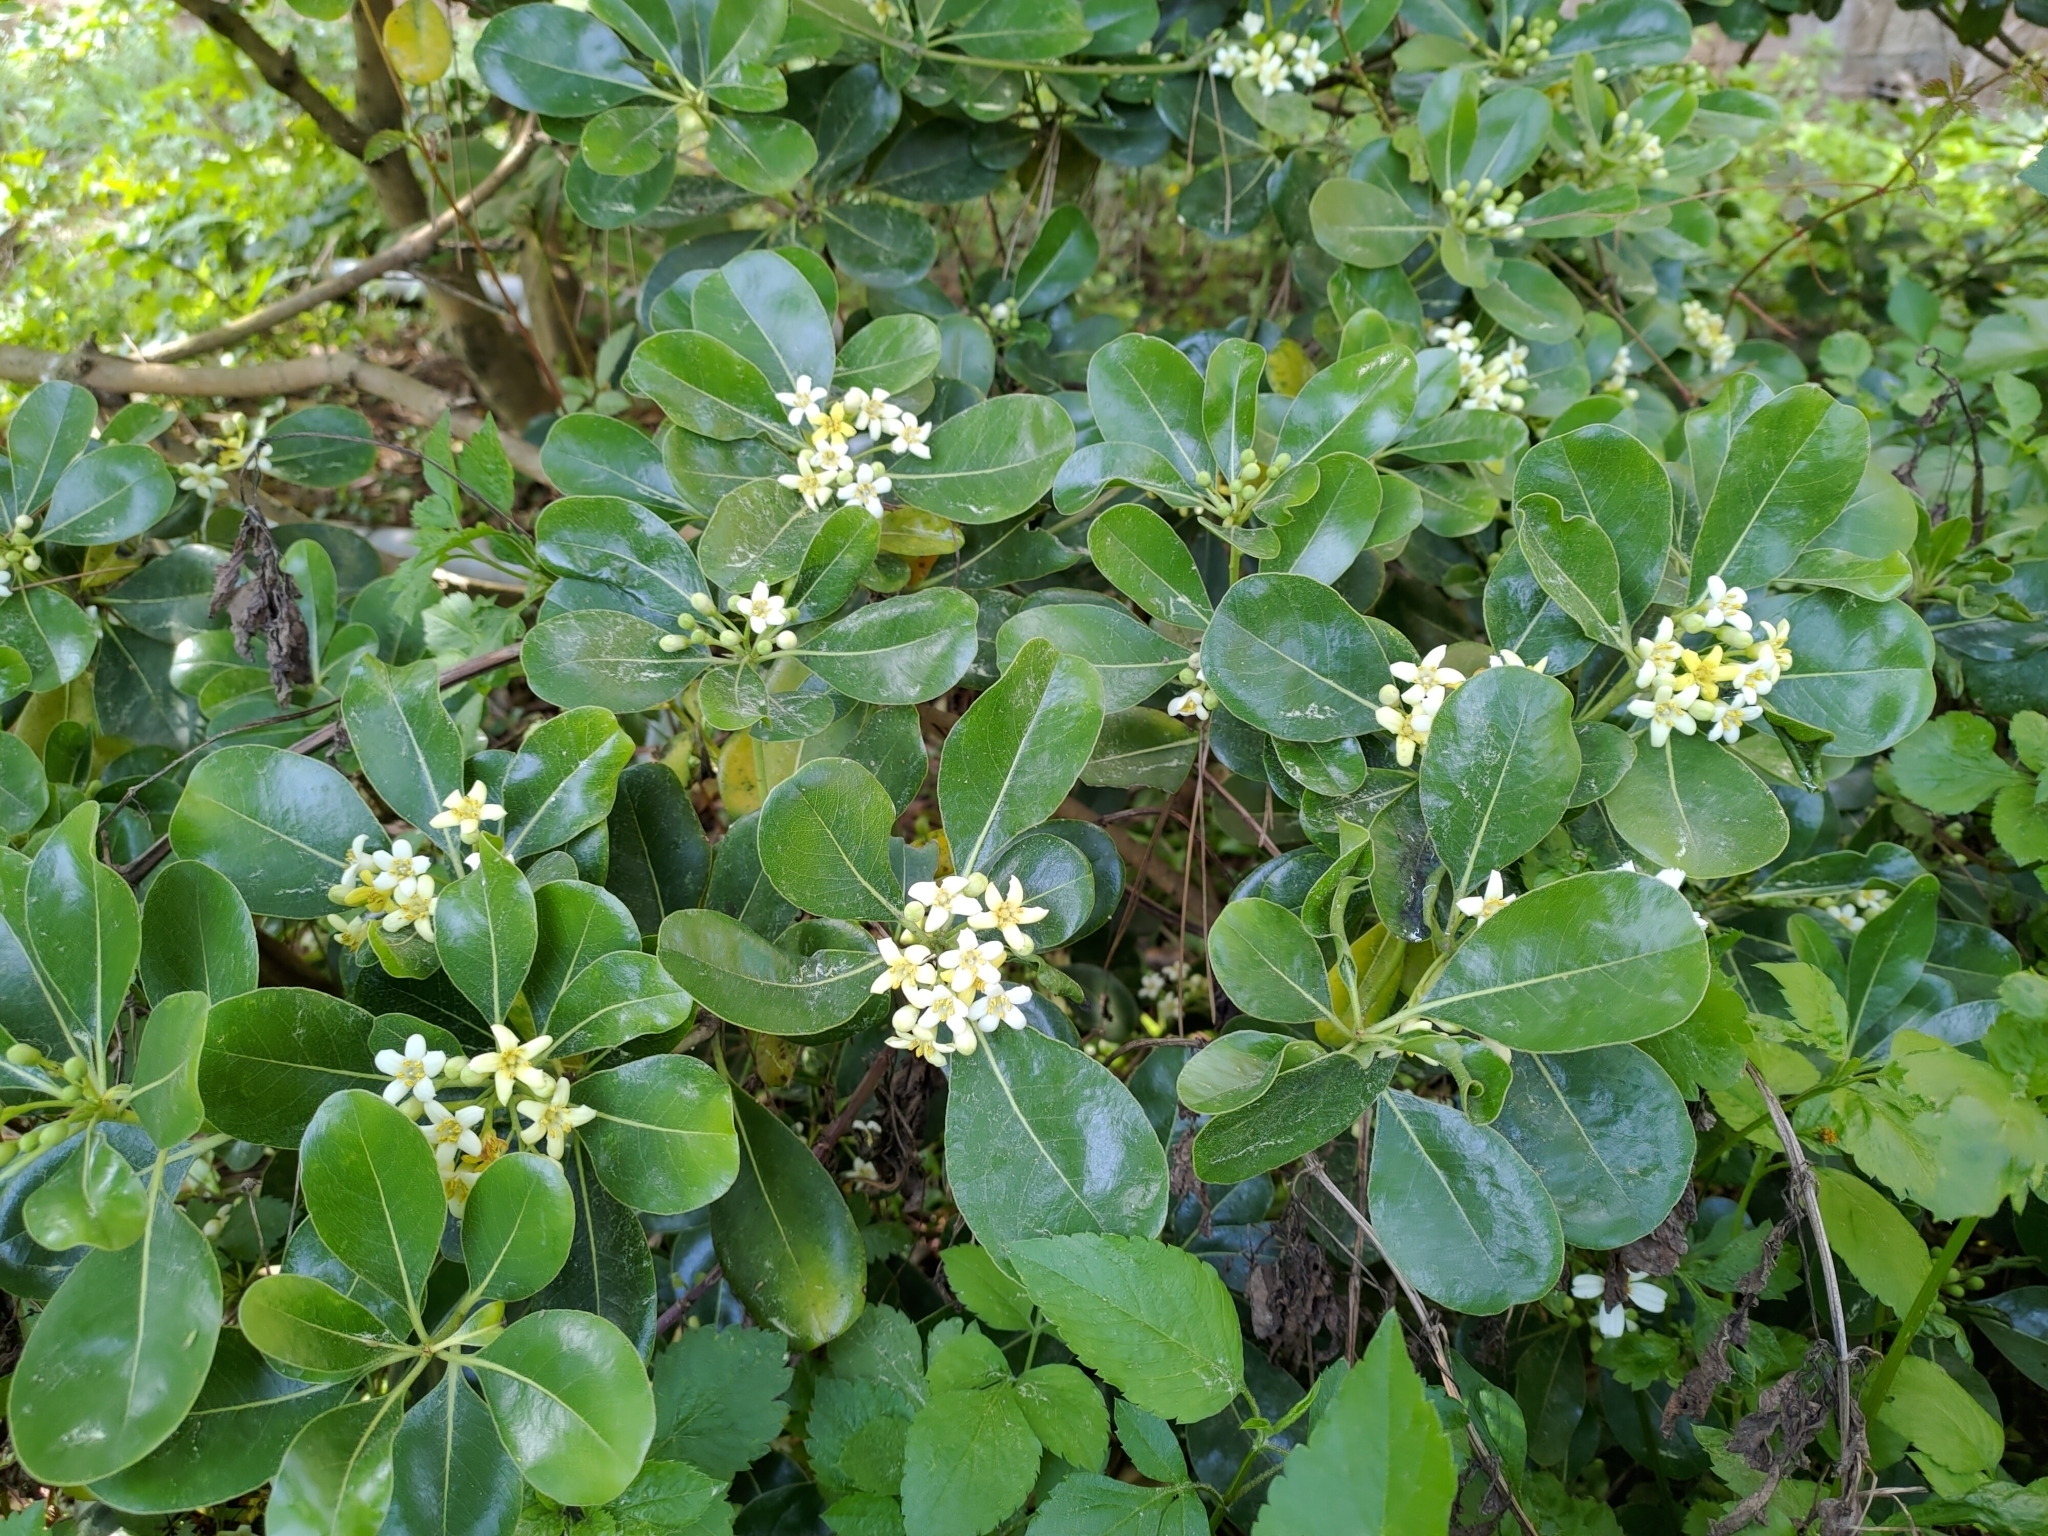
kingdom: Plantae
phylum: Tracheophyta
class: Magnoliopsida
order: Apiales
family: Pittosporaceae
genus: Pittosporum
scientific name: Pittosporum tobira
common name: Japanese cheesewood
